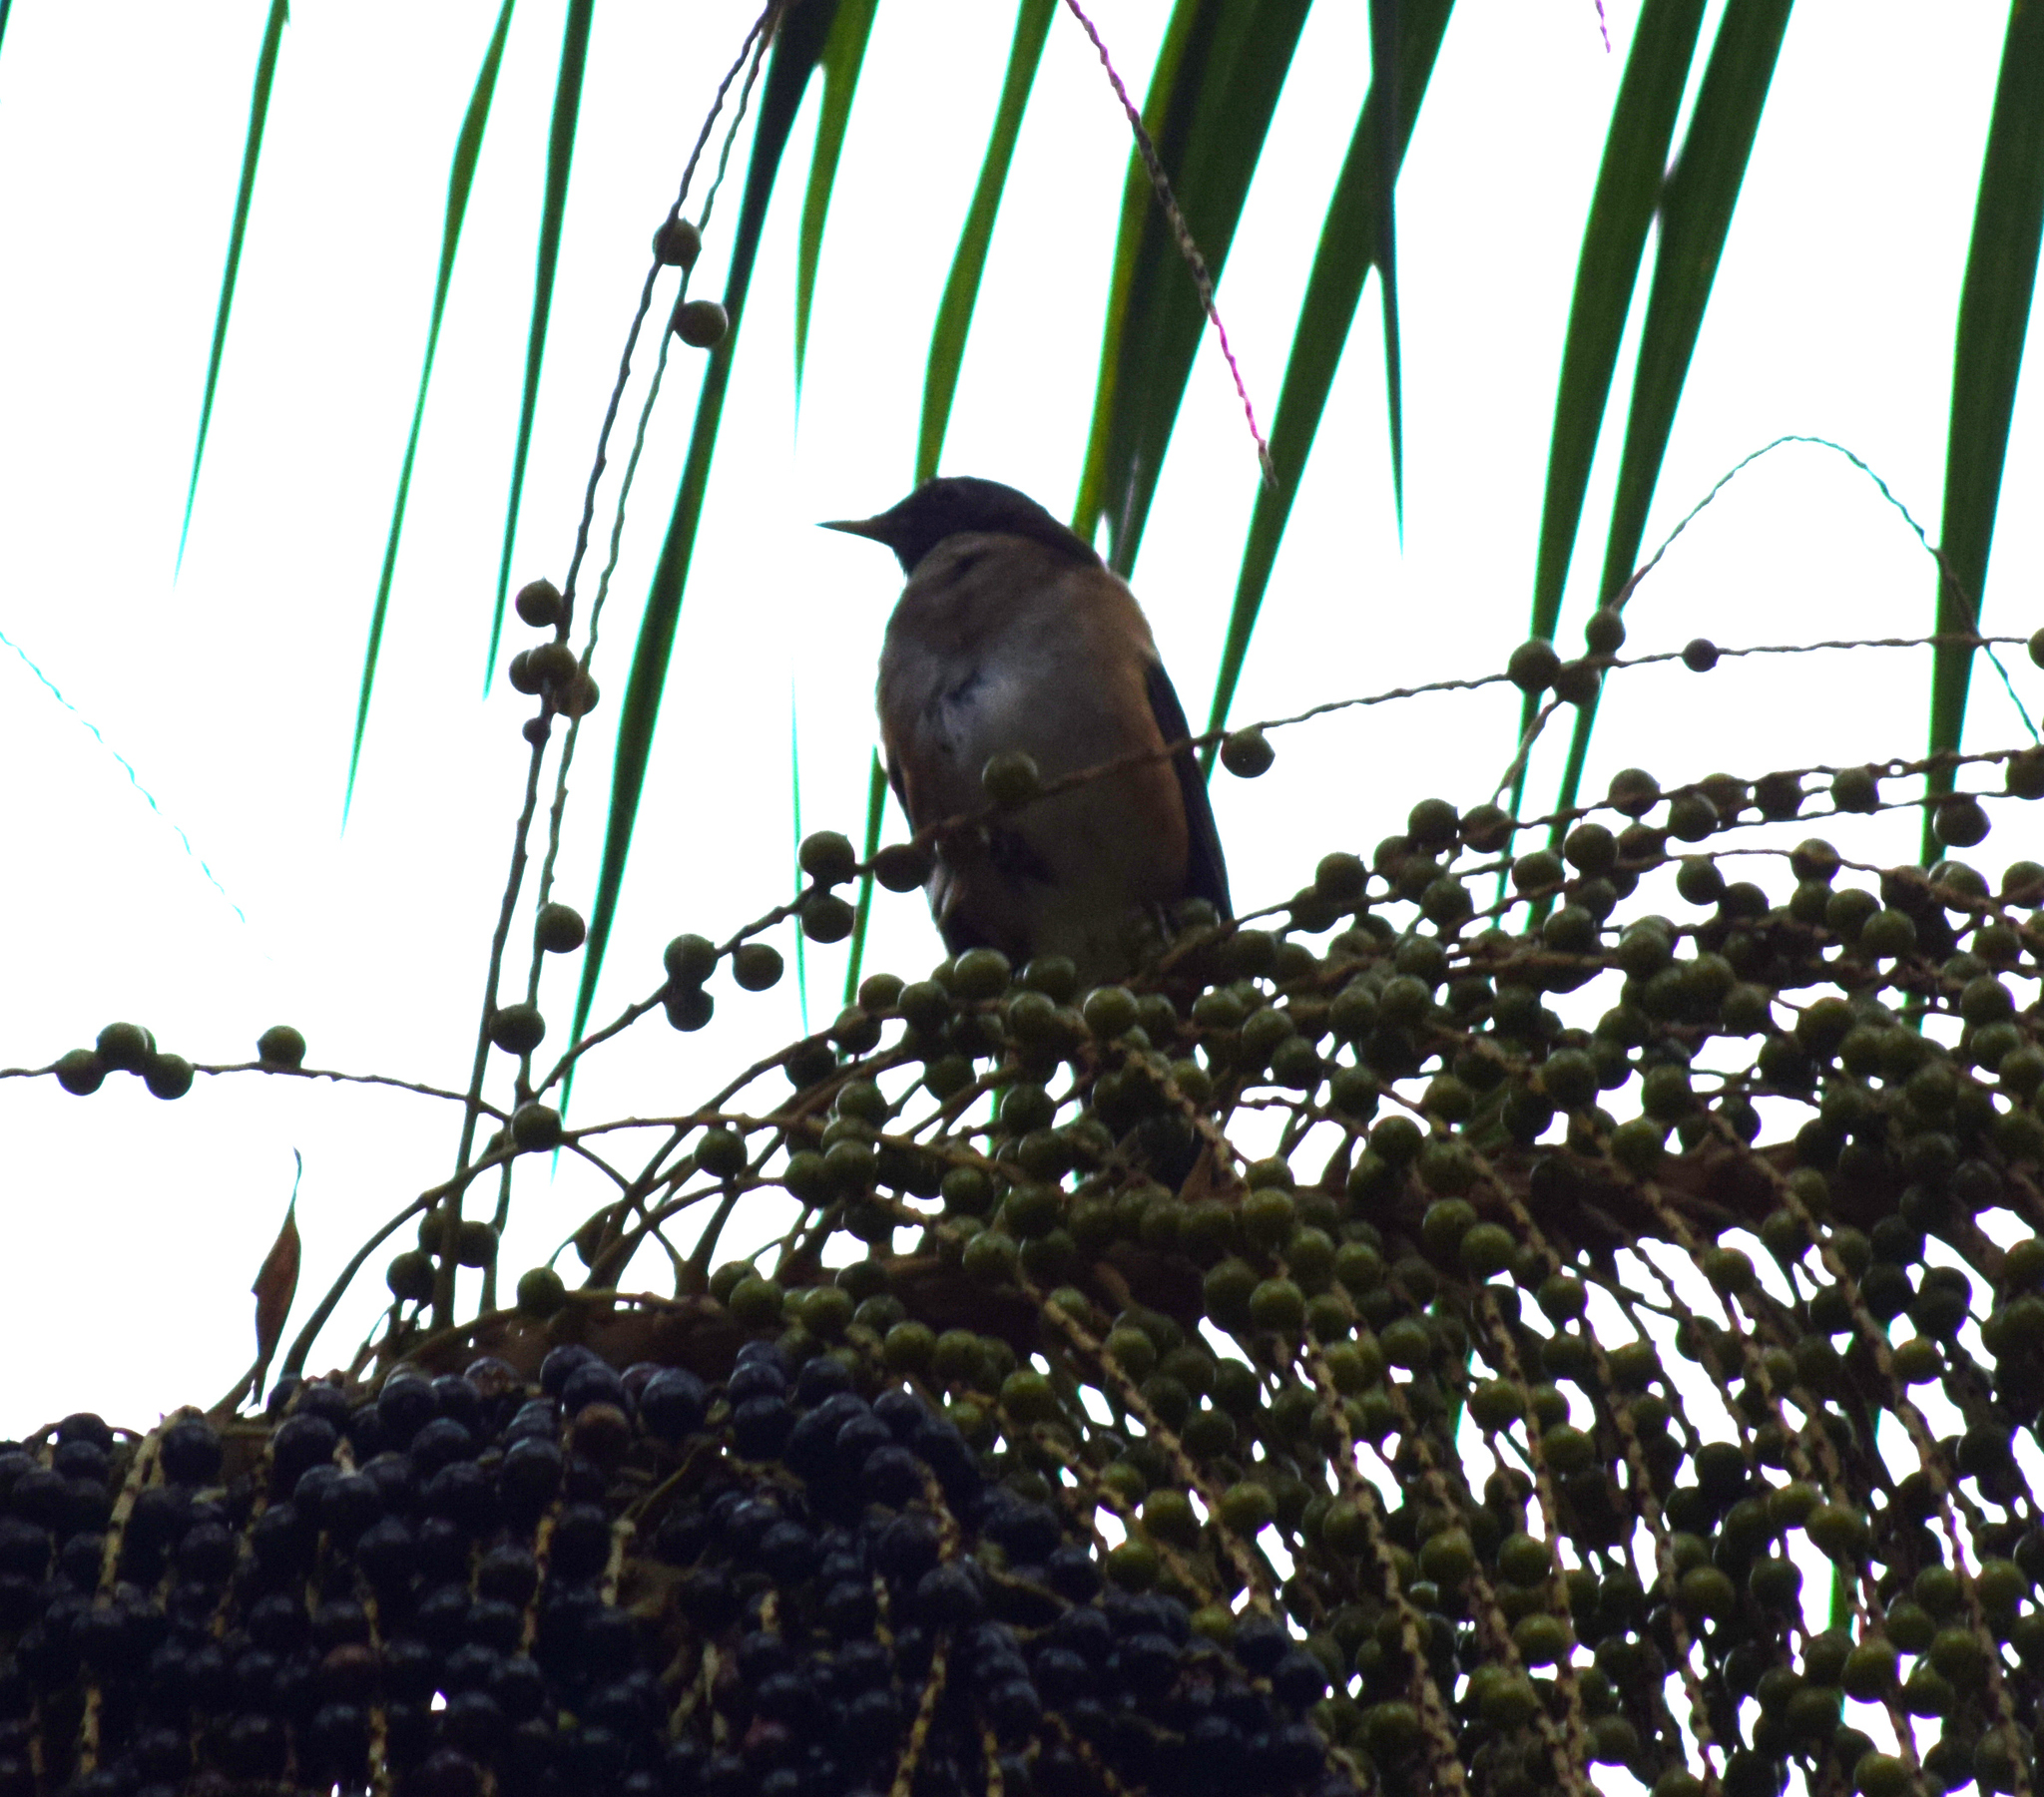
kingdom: Animalia
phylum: Chordata
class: Aves
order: Passeriformes
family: Turdidae
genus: Turdus
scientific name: Turdus albicollis
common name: White-necked thrush
